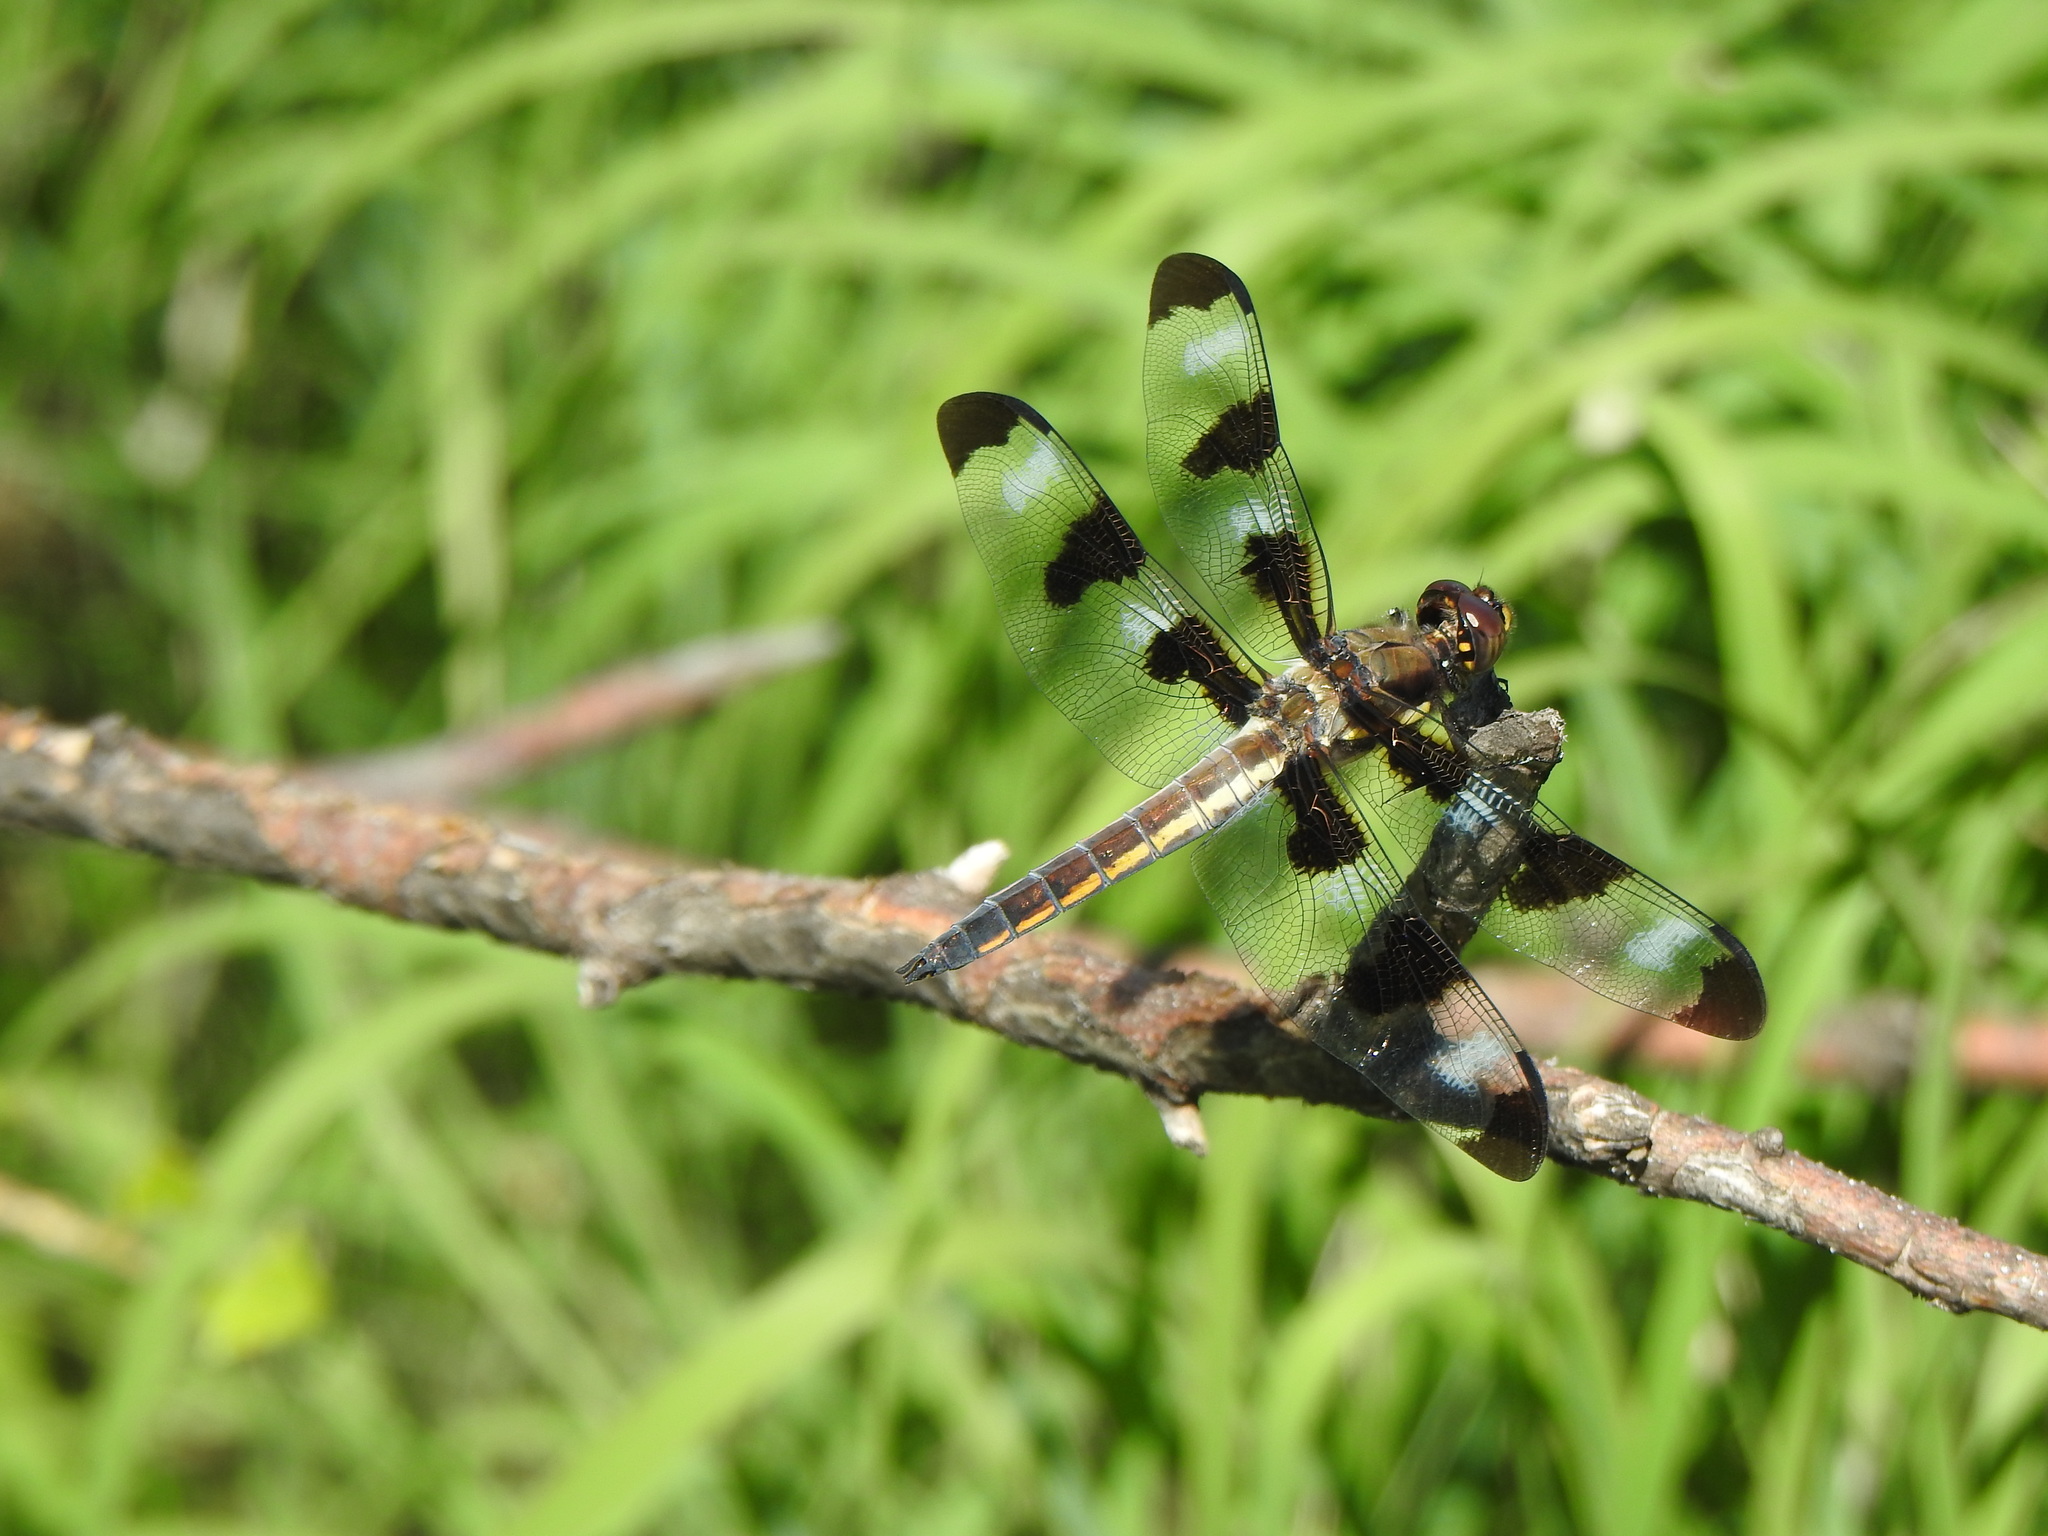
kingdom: Animalia
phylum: Arthropoda
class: Insecta
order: Odonata
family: Libellulidae
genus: Libellula
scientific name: Libellula pulchella
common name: Twelve-spotted skimmer
